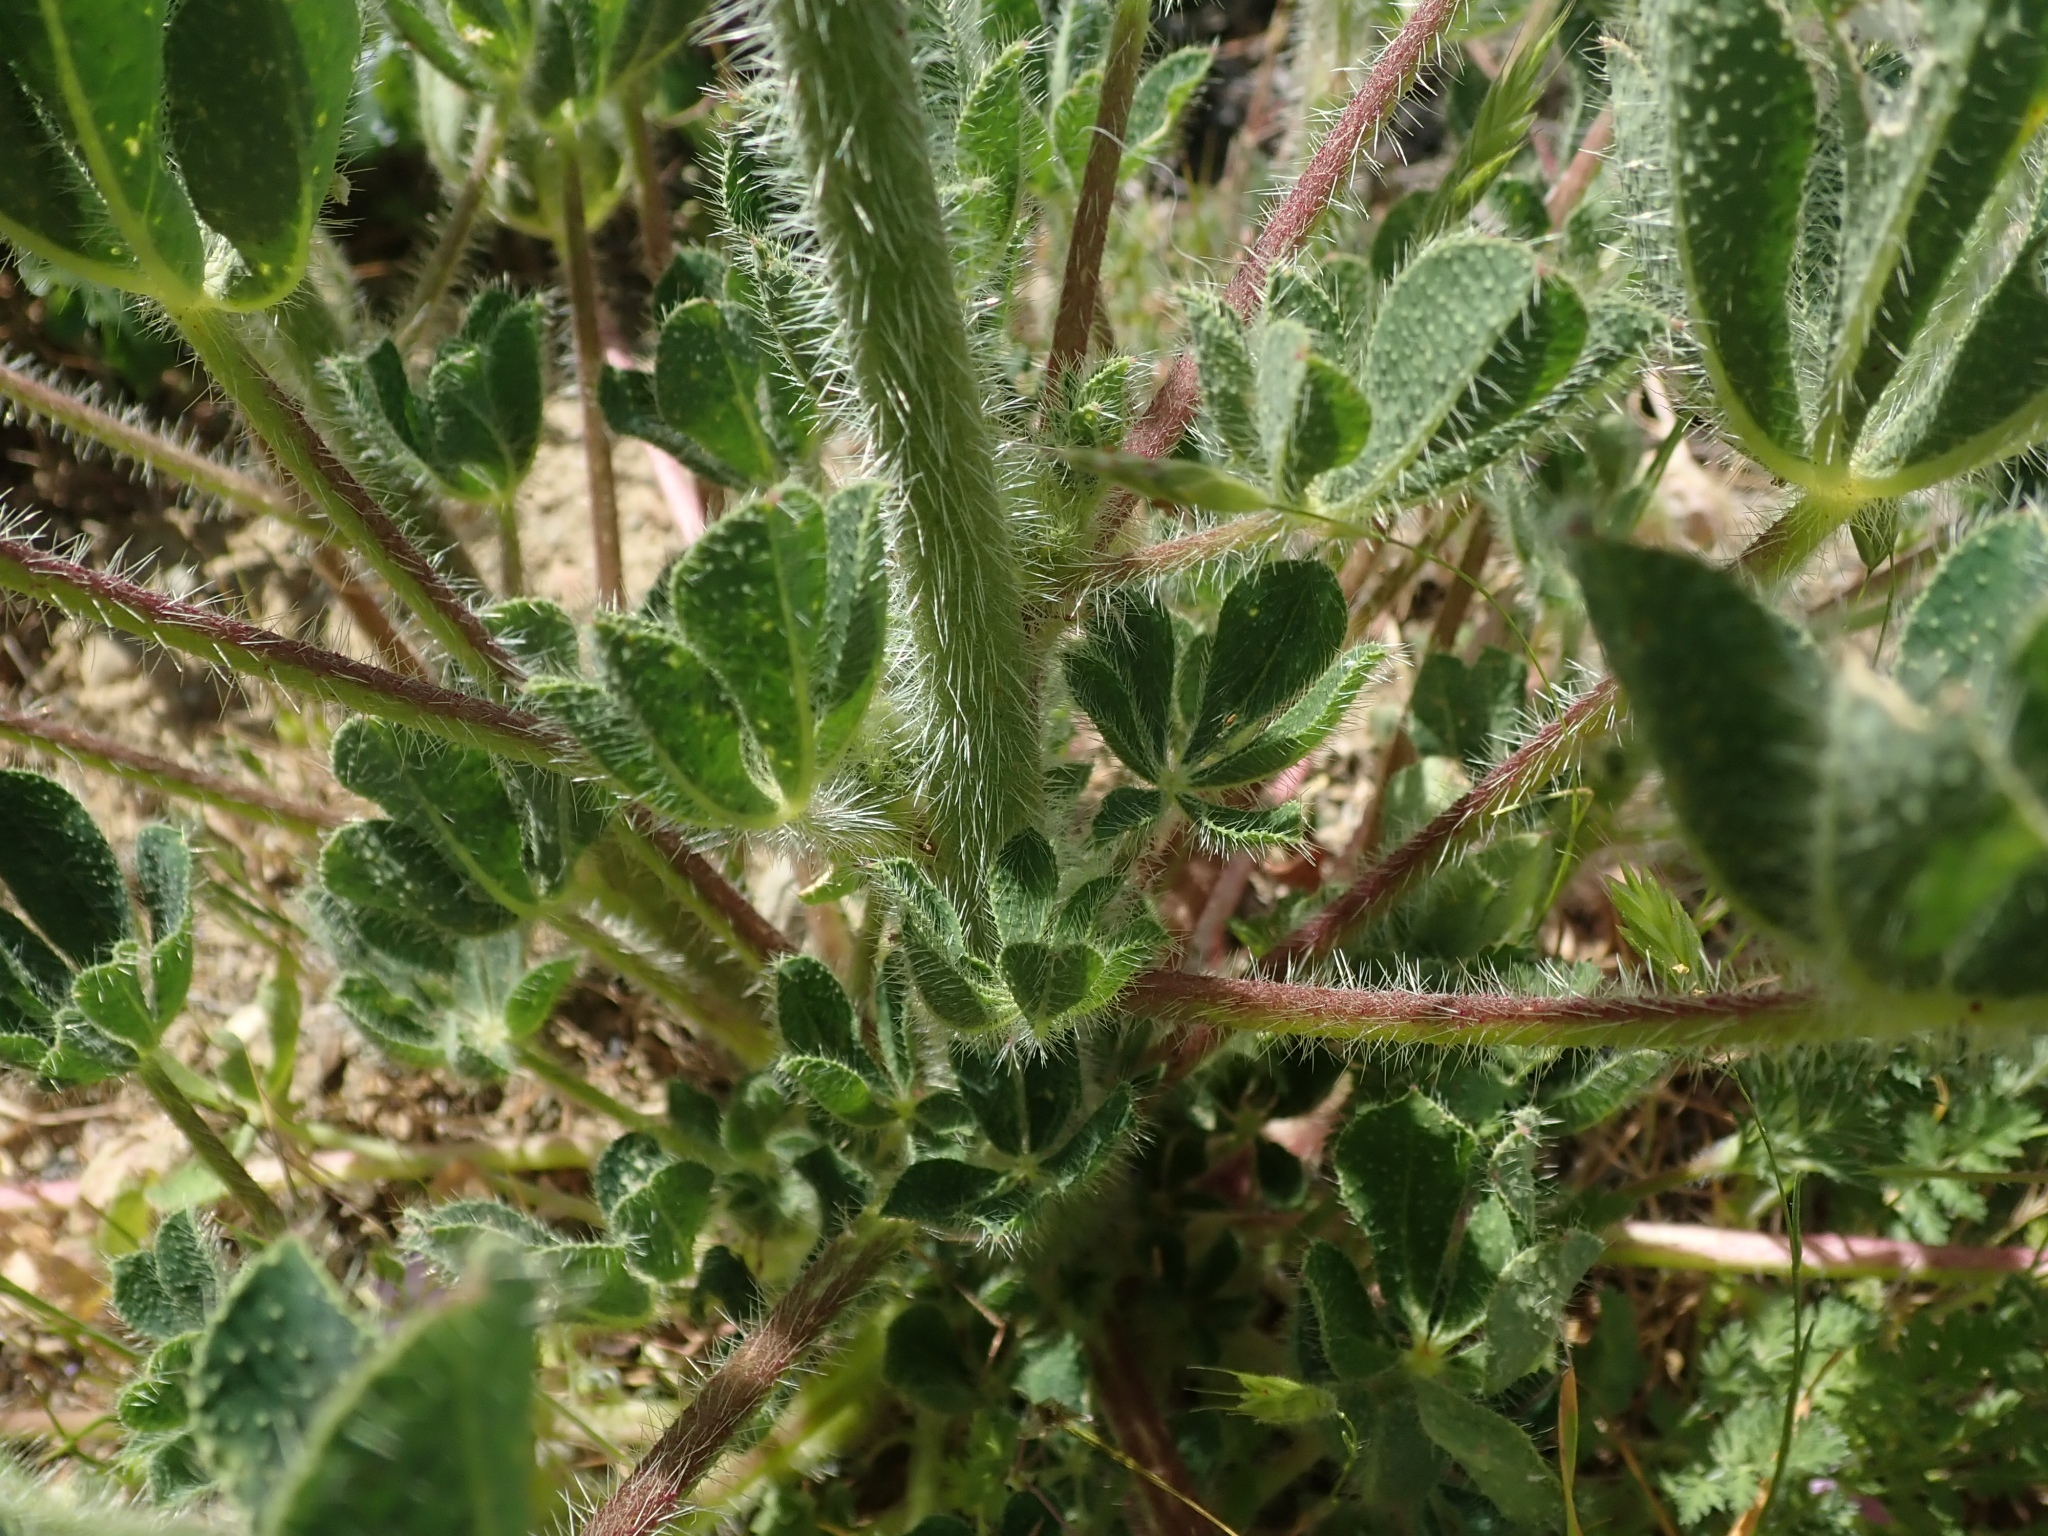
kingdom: Plantae
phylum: Tracheophyta
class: Magnoliopsida
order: Fabales
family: Fabaceae
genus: Lupinus
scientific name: Lupinus hirsutissimus
